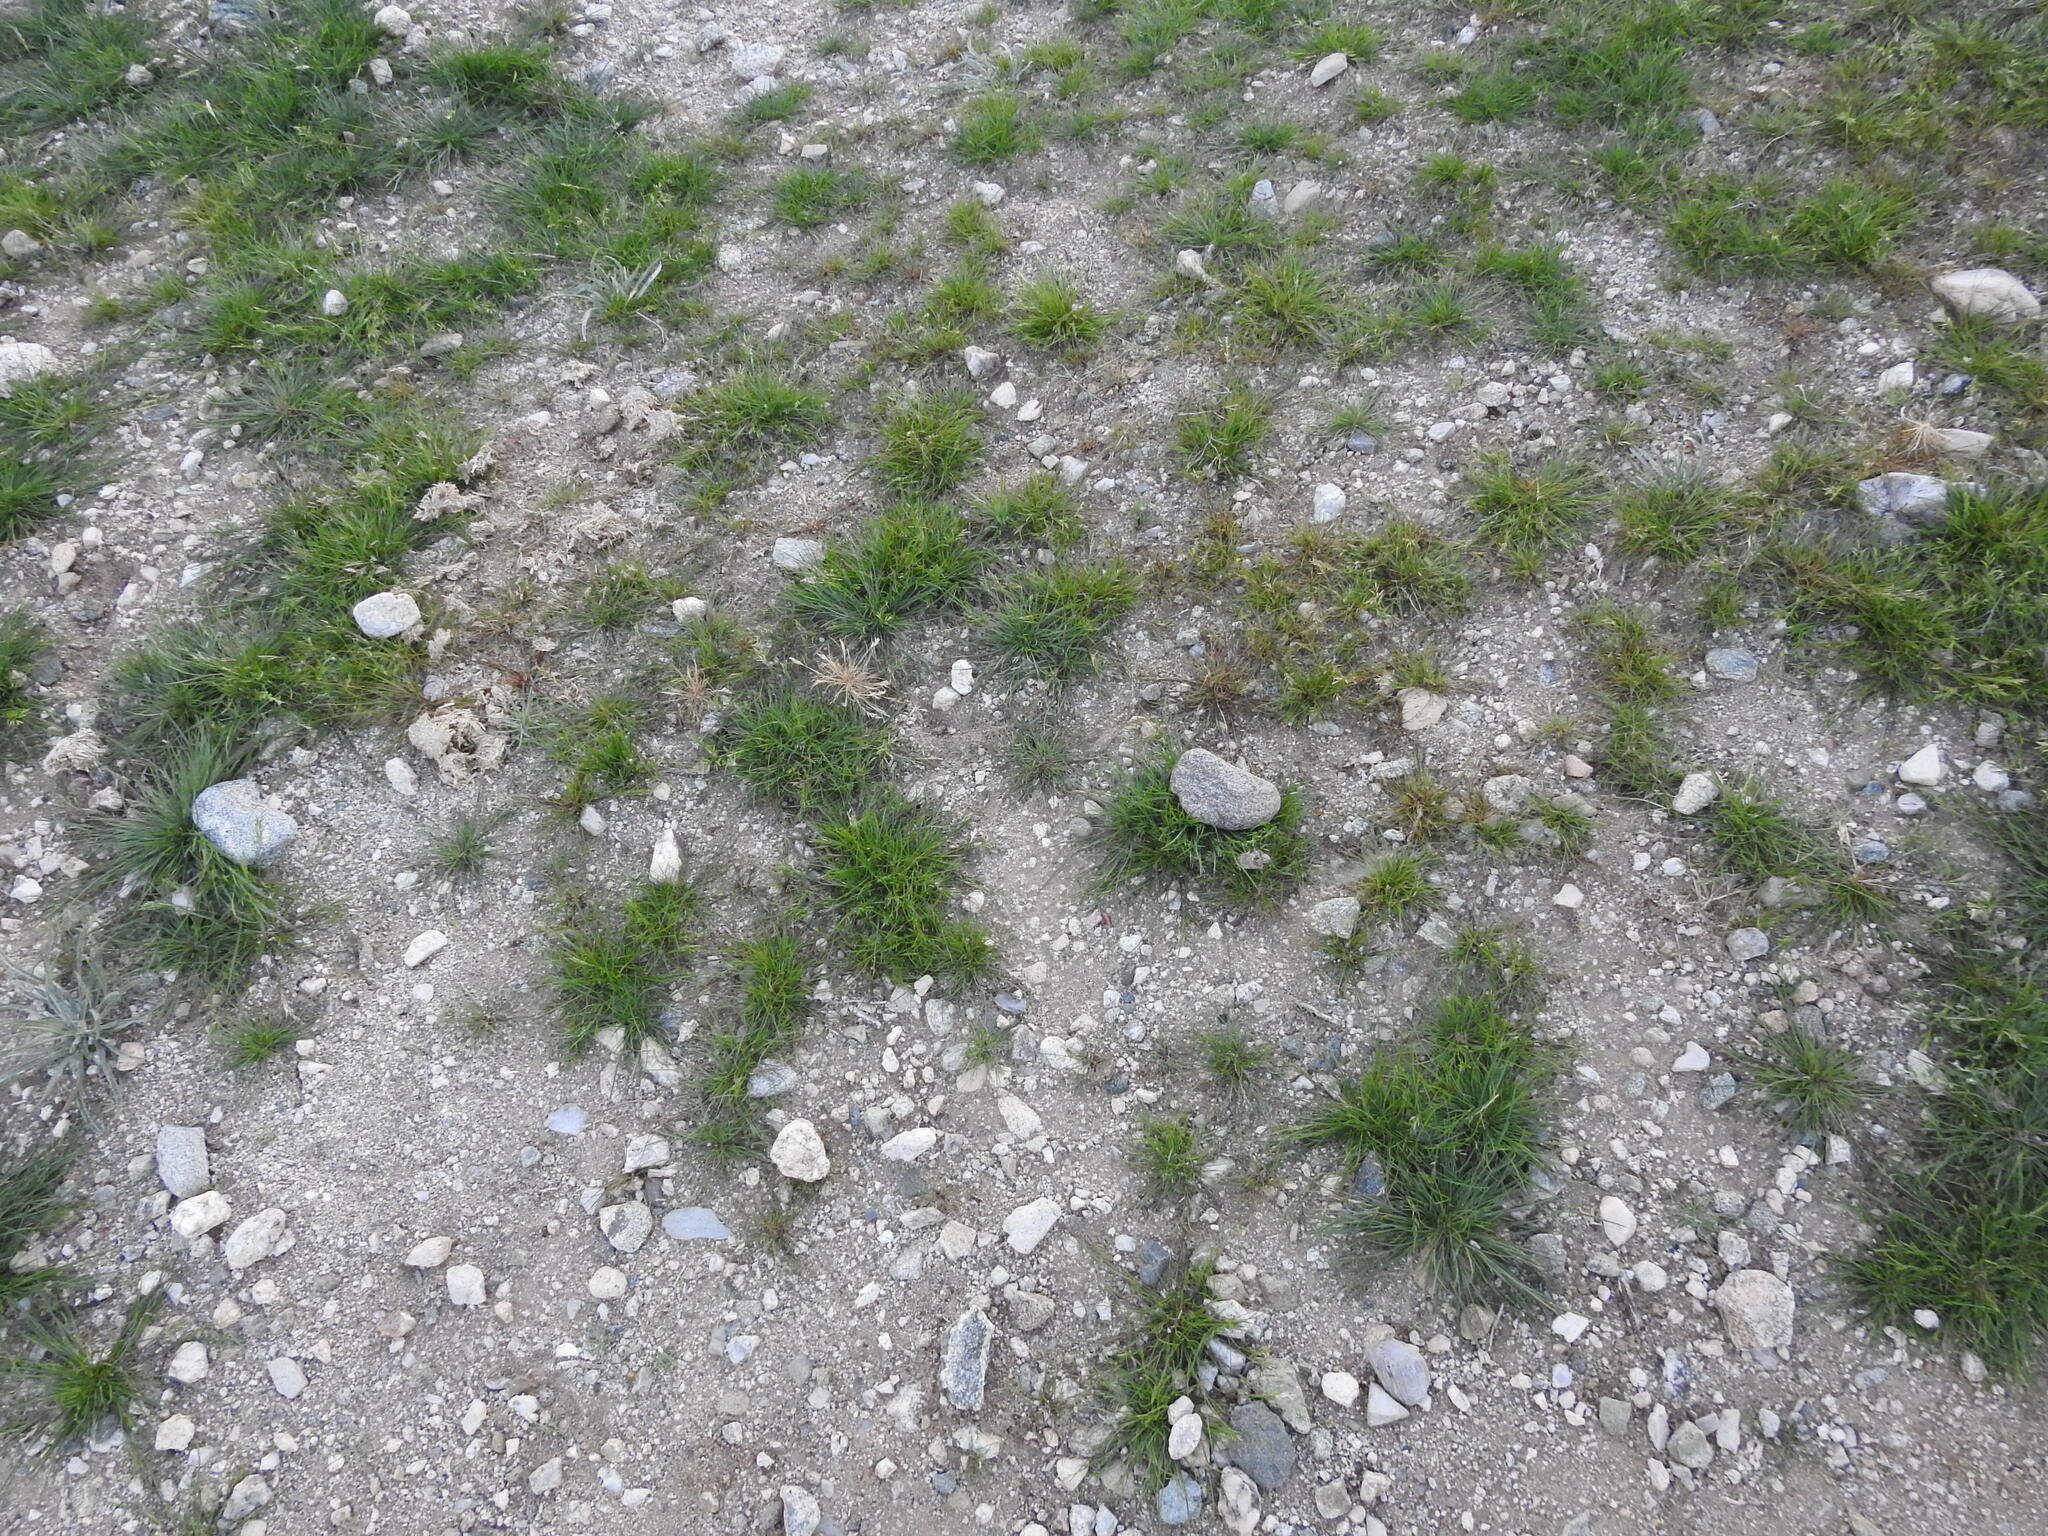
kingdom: Plantae
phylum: Tracheophyta
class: Liliopsida
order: Poales
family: Poaceae
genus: Schismus
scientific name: Schismus barbatus
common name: Kelch-grass
